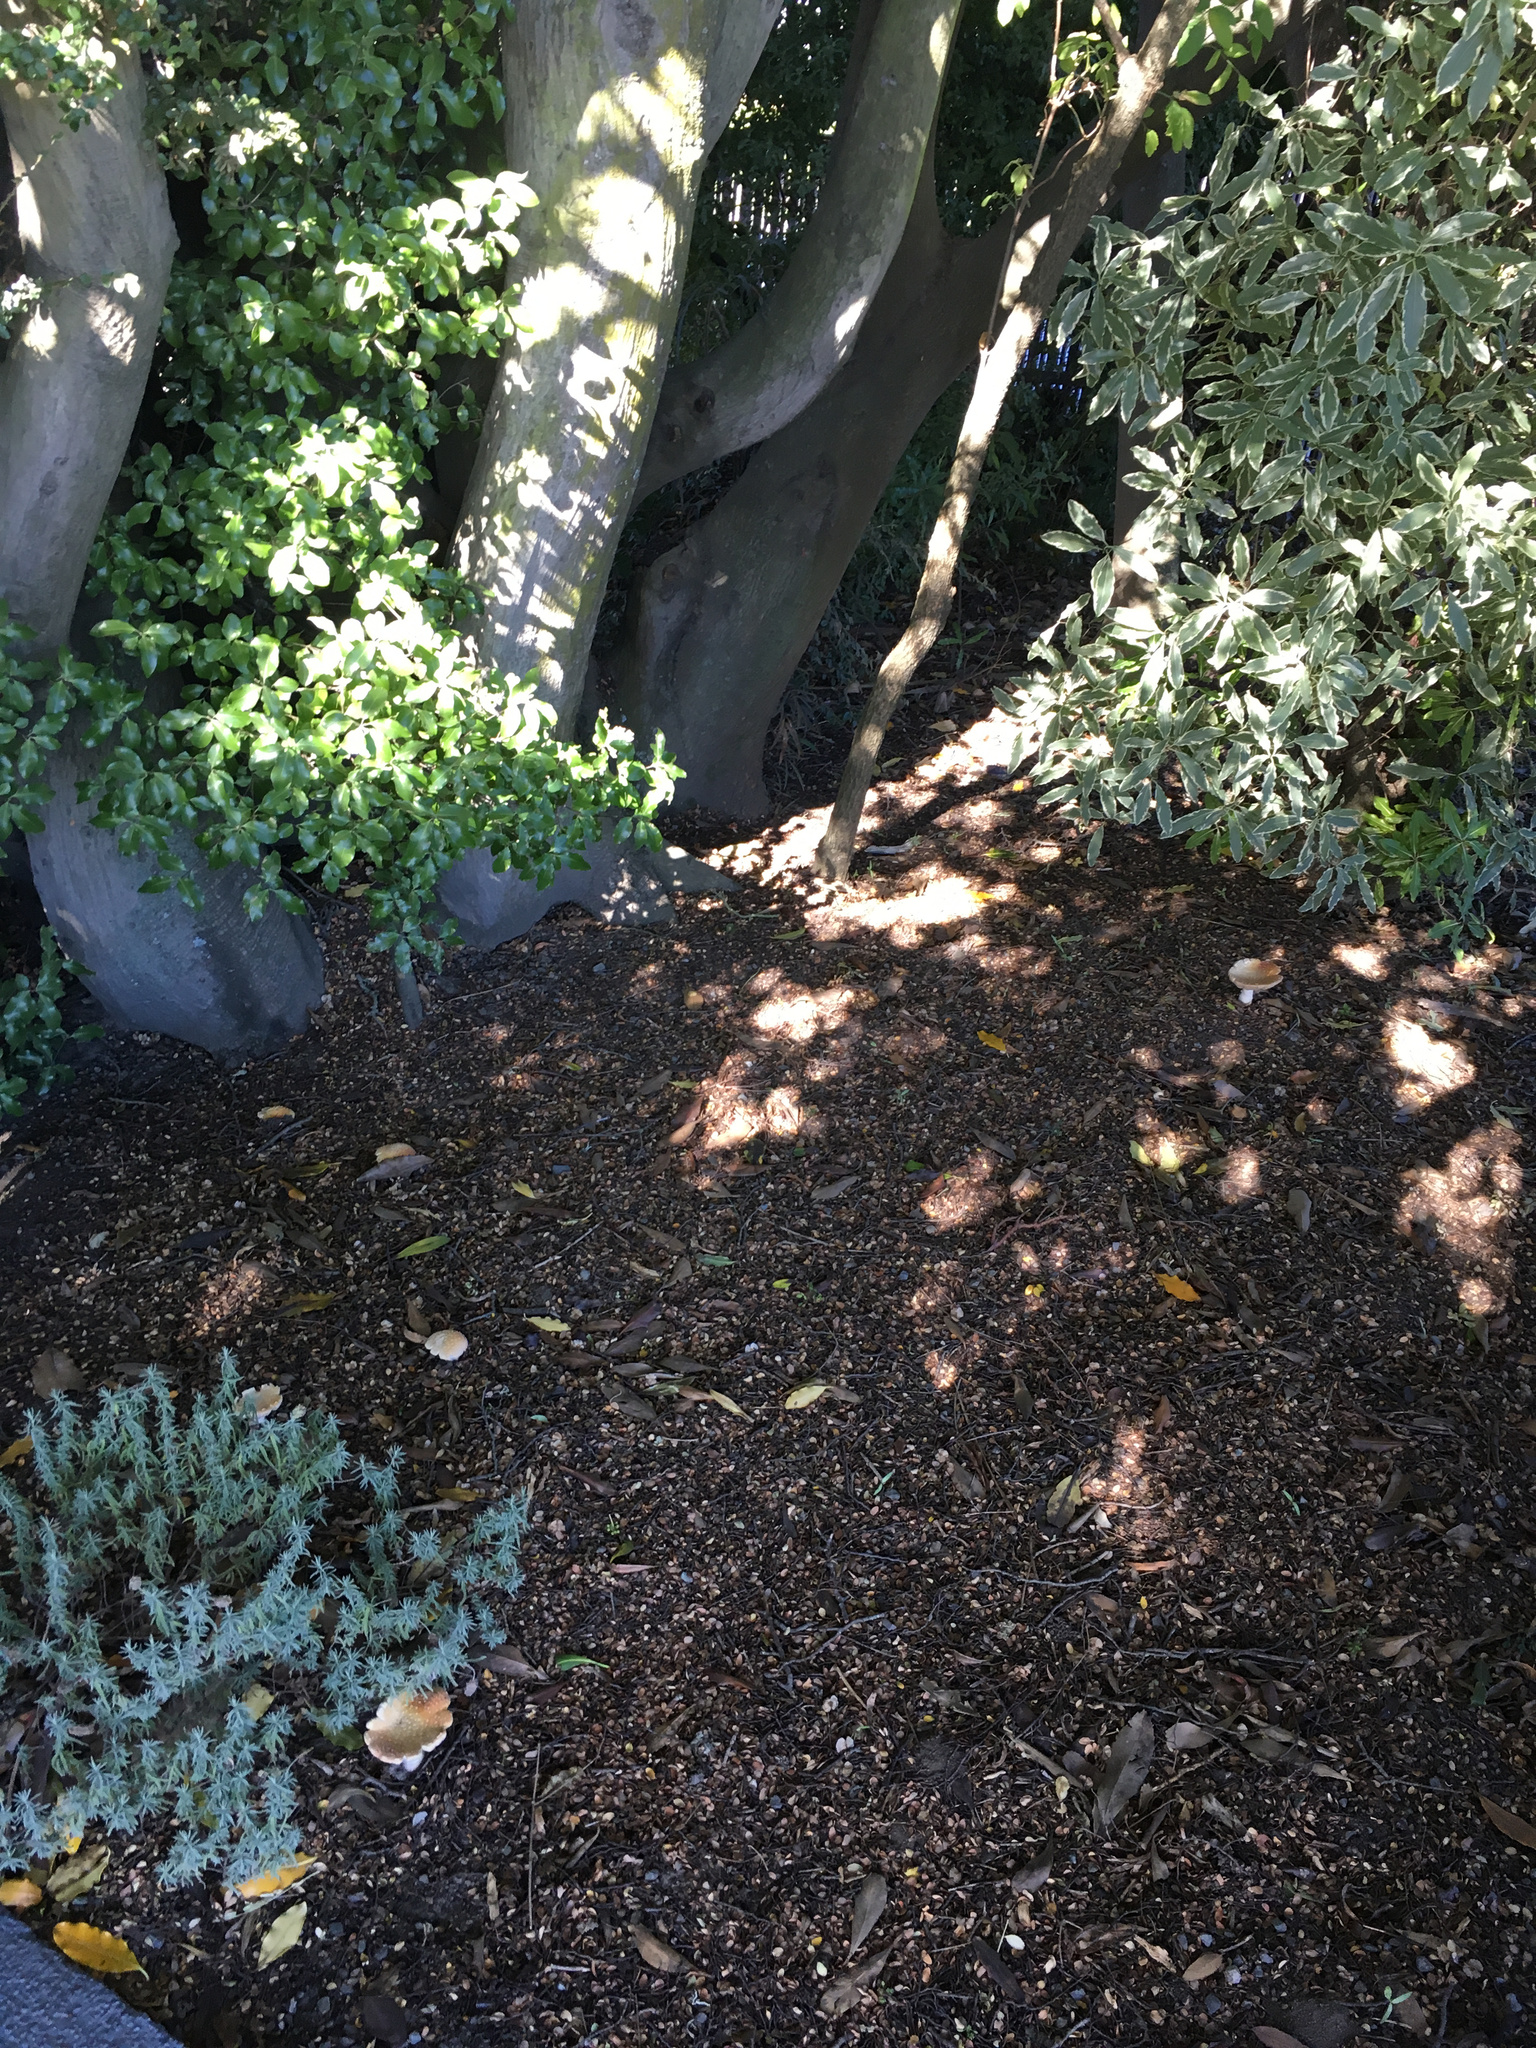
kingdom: Fungi
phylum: Basidiomycota
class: Agaricomycetes
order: Agaricales
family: Amanitaceae
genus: Amanita
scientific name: Amanita muscaria
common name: Fly agaric
